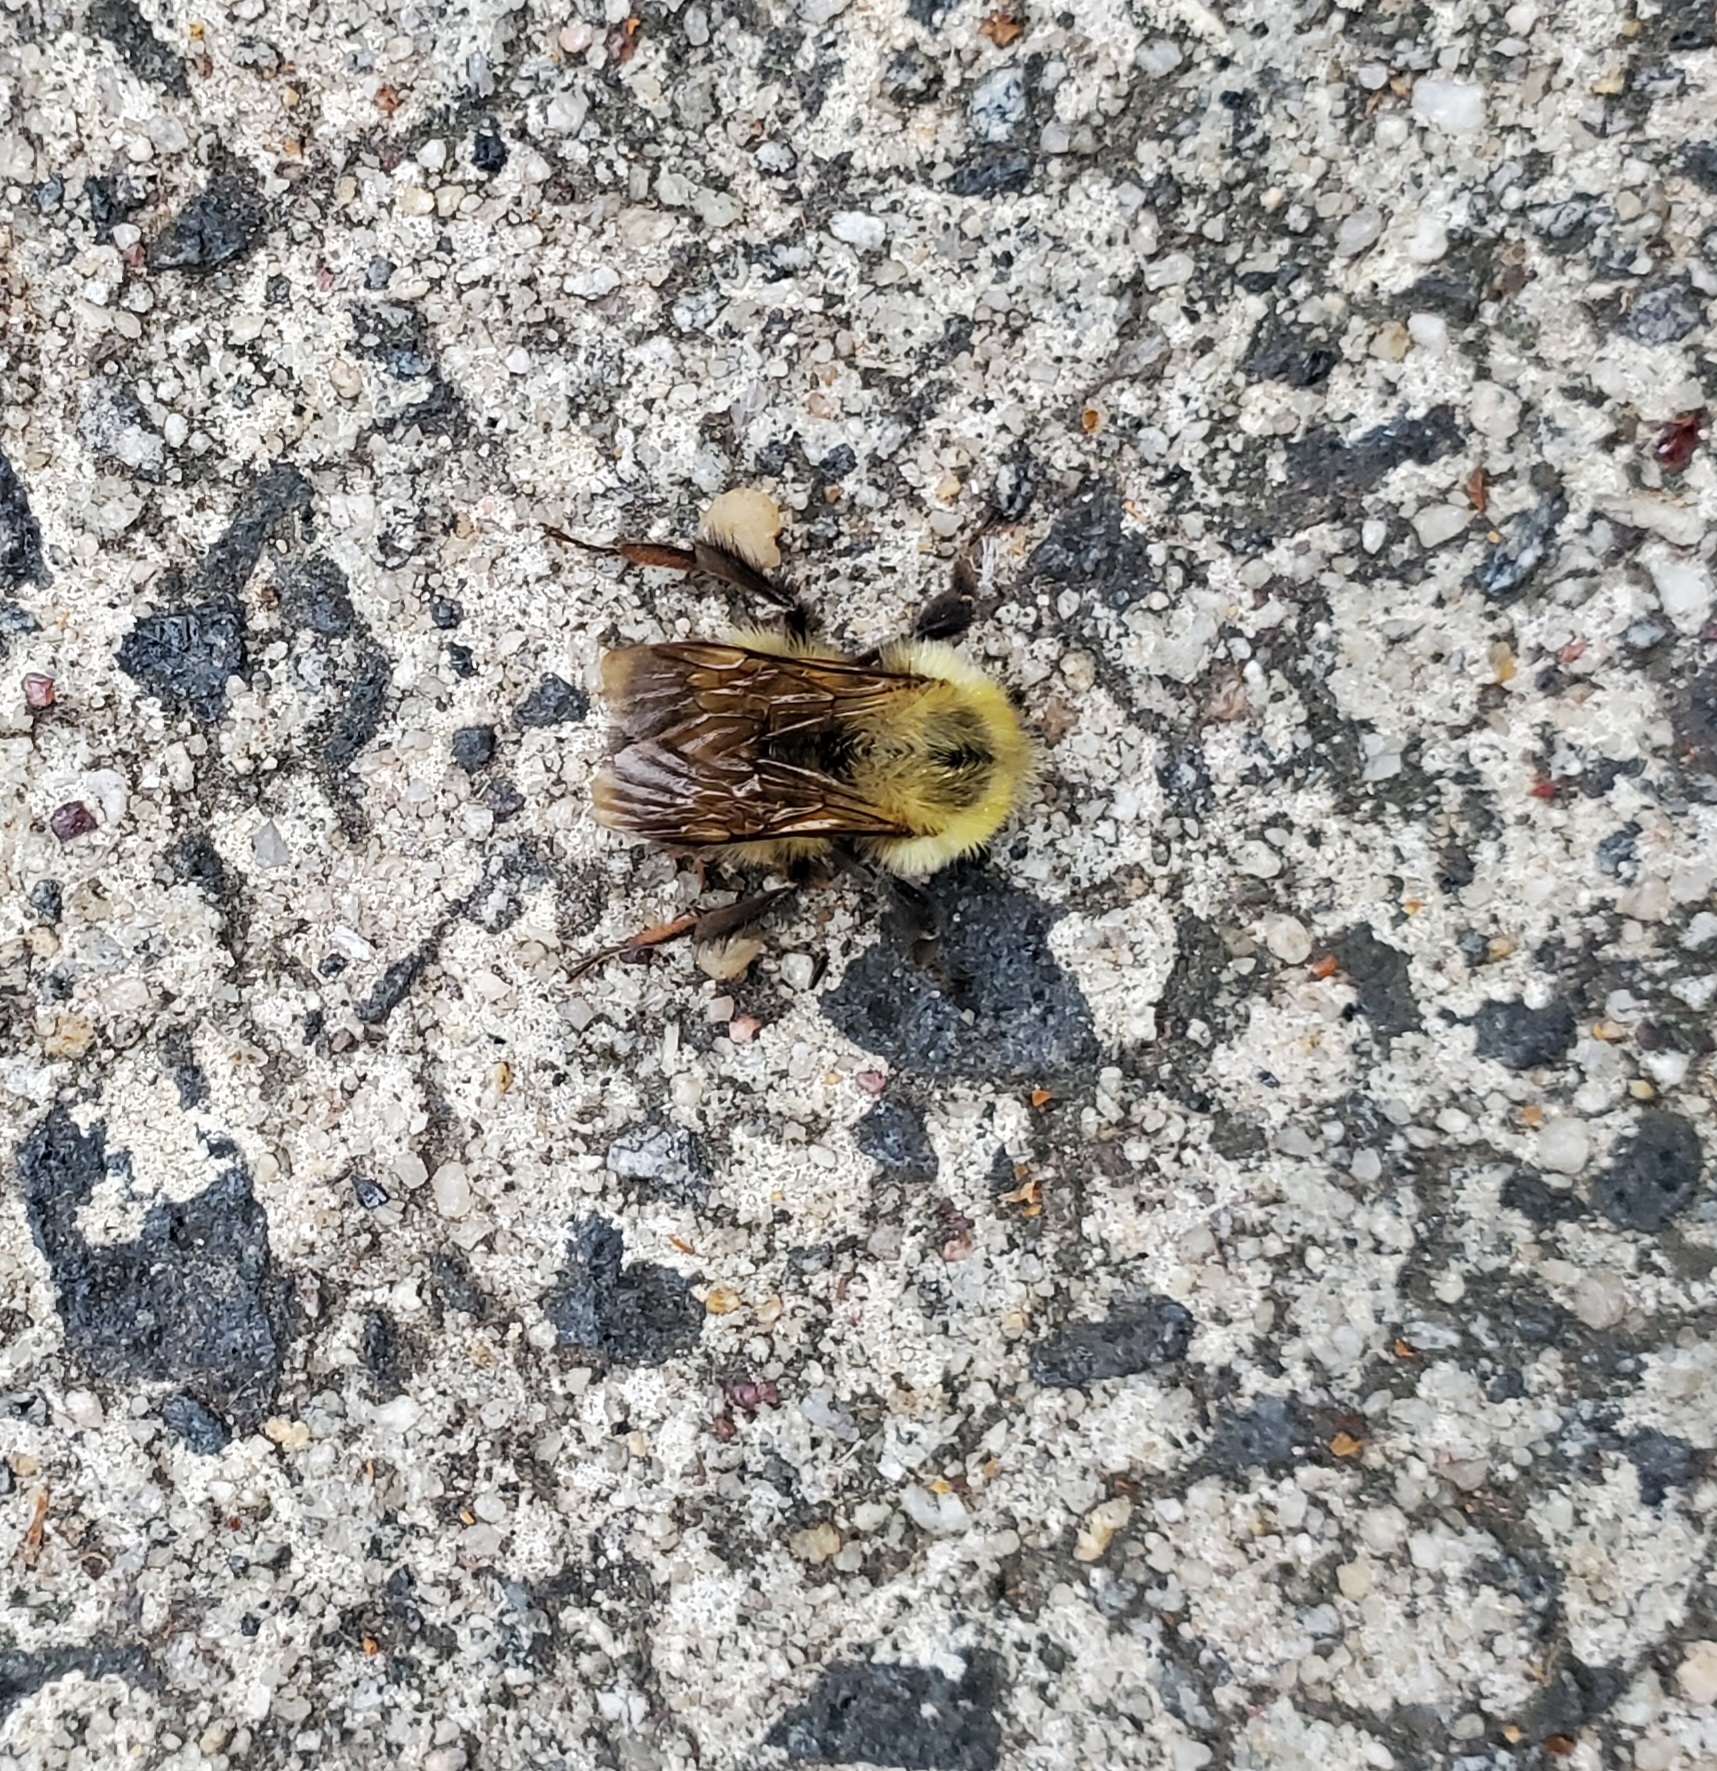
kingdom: Animalia
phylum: Arthropoda
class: Insecta
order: Hymenoptera
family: Apidae
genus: Bombus
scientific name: Bombus perplexus
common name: Confusing bumble bee
